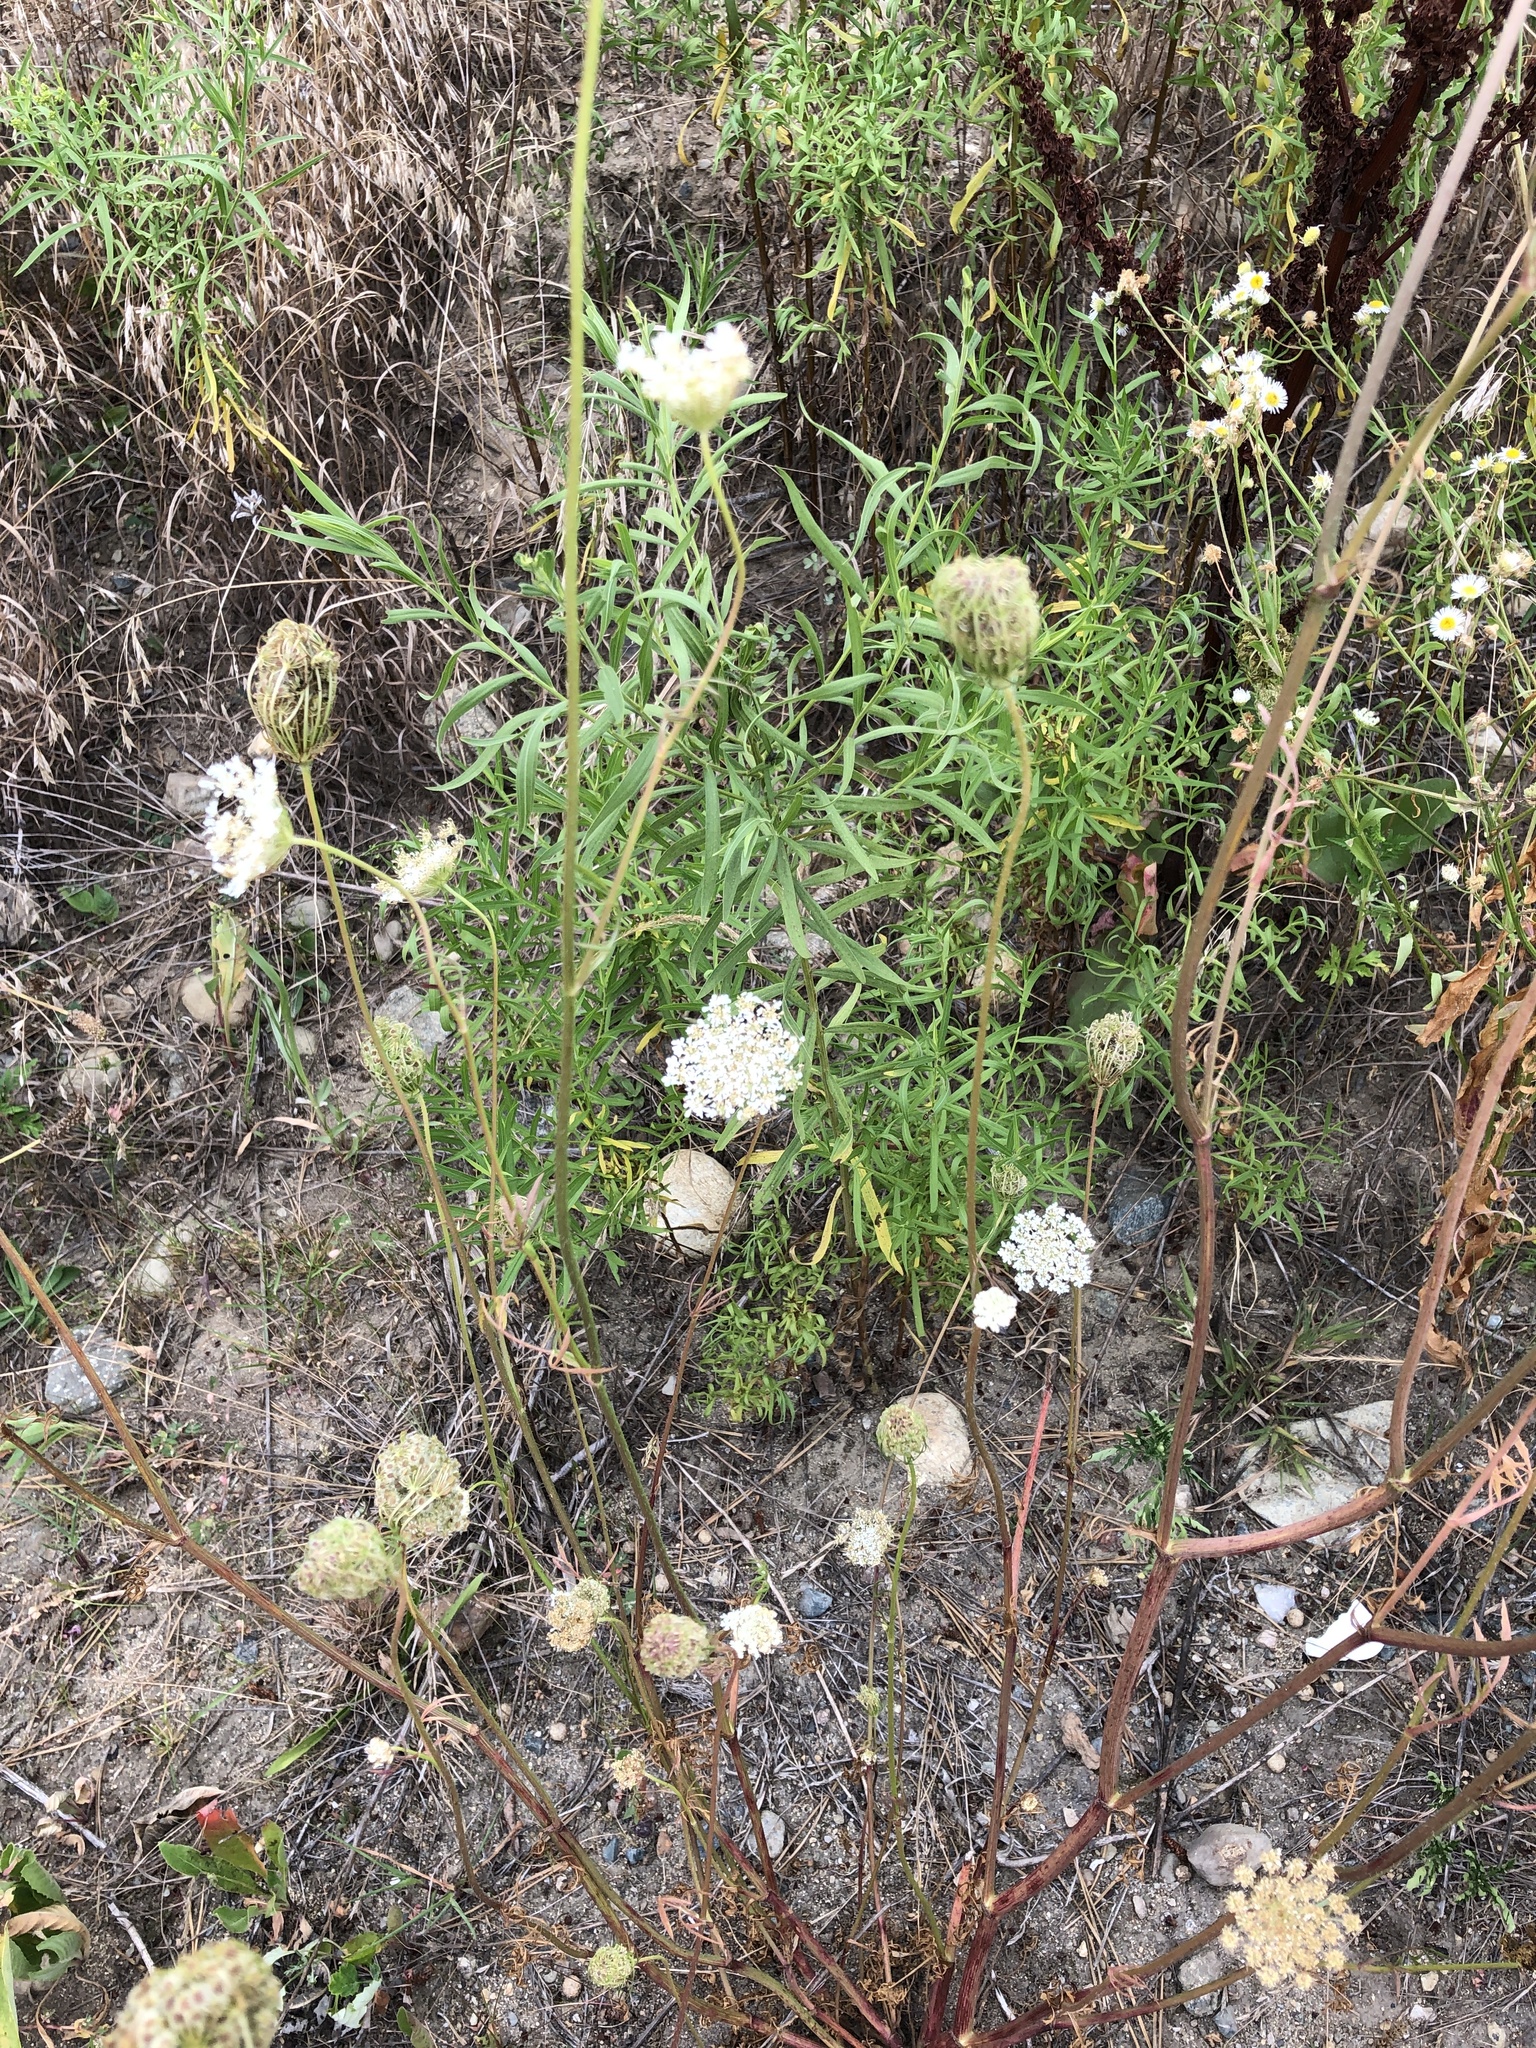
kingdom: Plantae
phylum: Tracheophyta
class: Magnoliopsida
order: Apiales
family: Apiaceae
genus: Daucus
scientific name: Daucus carota
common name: Wild carrot
